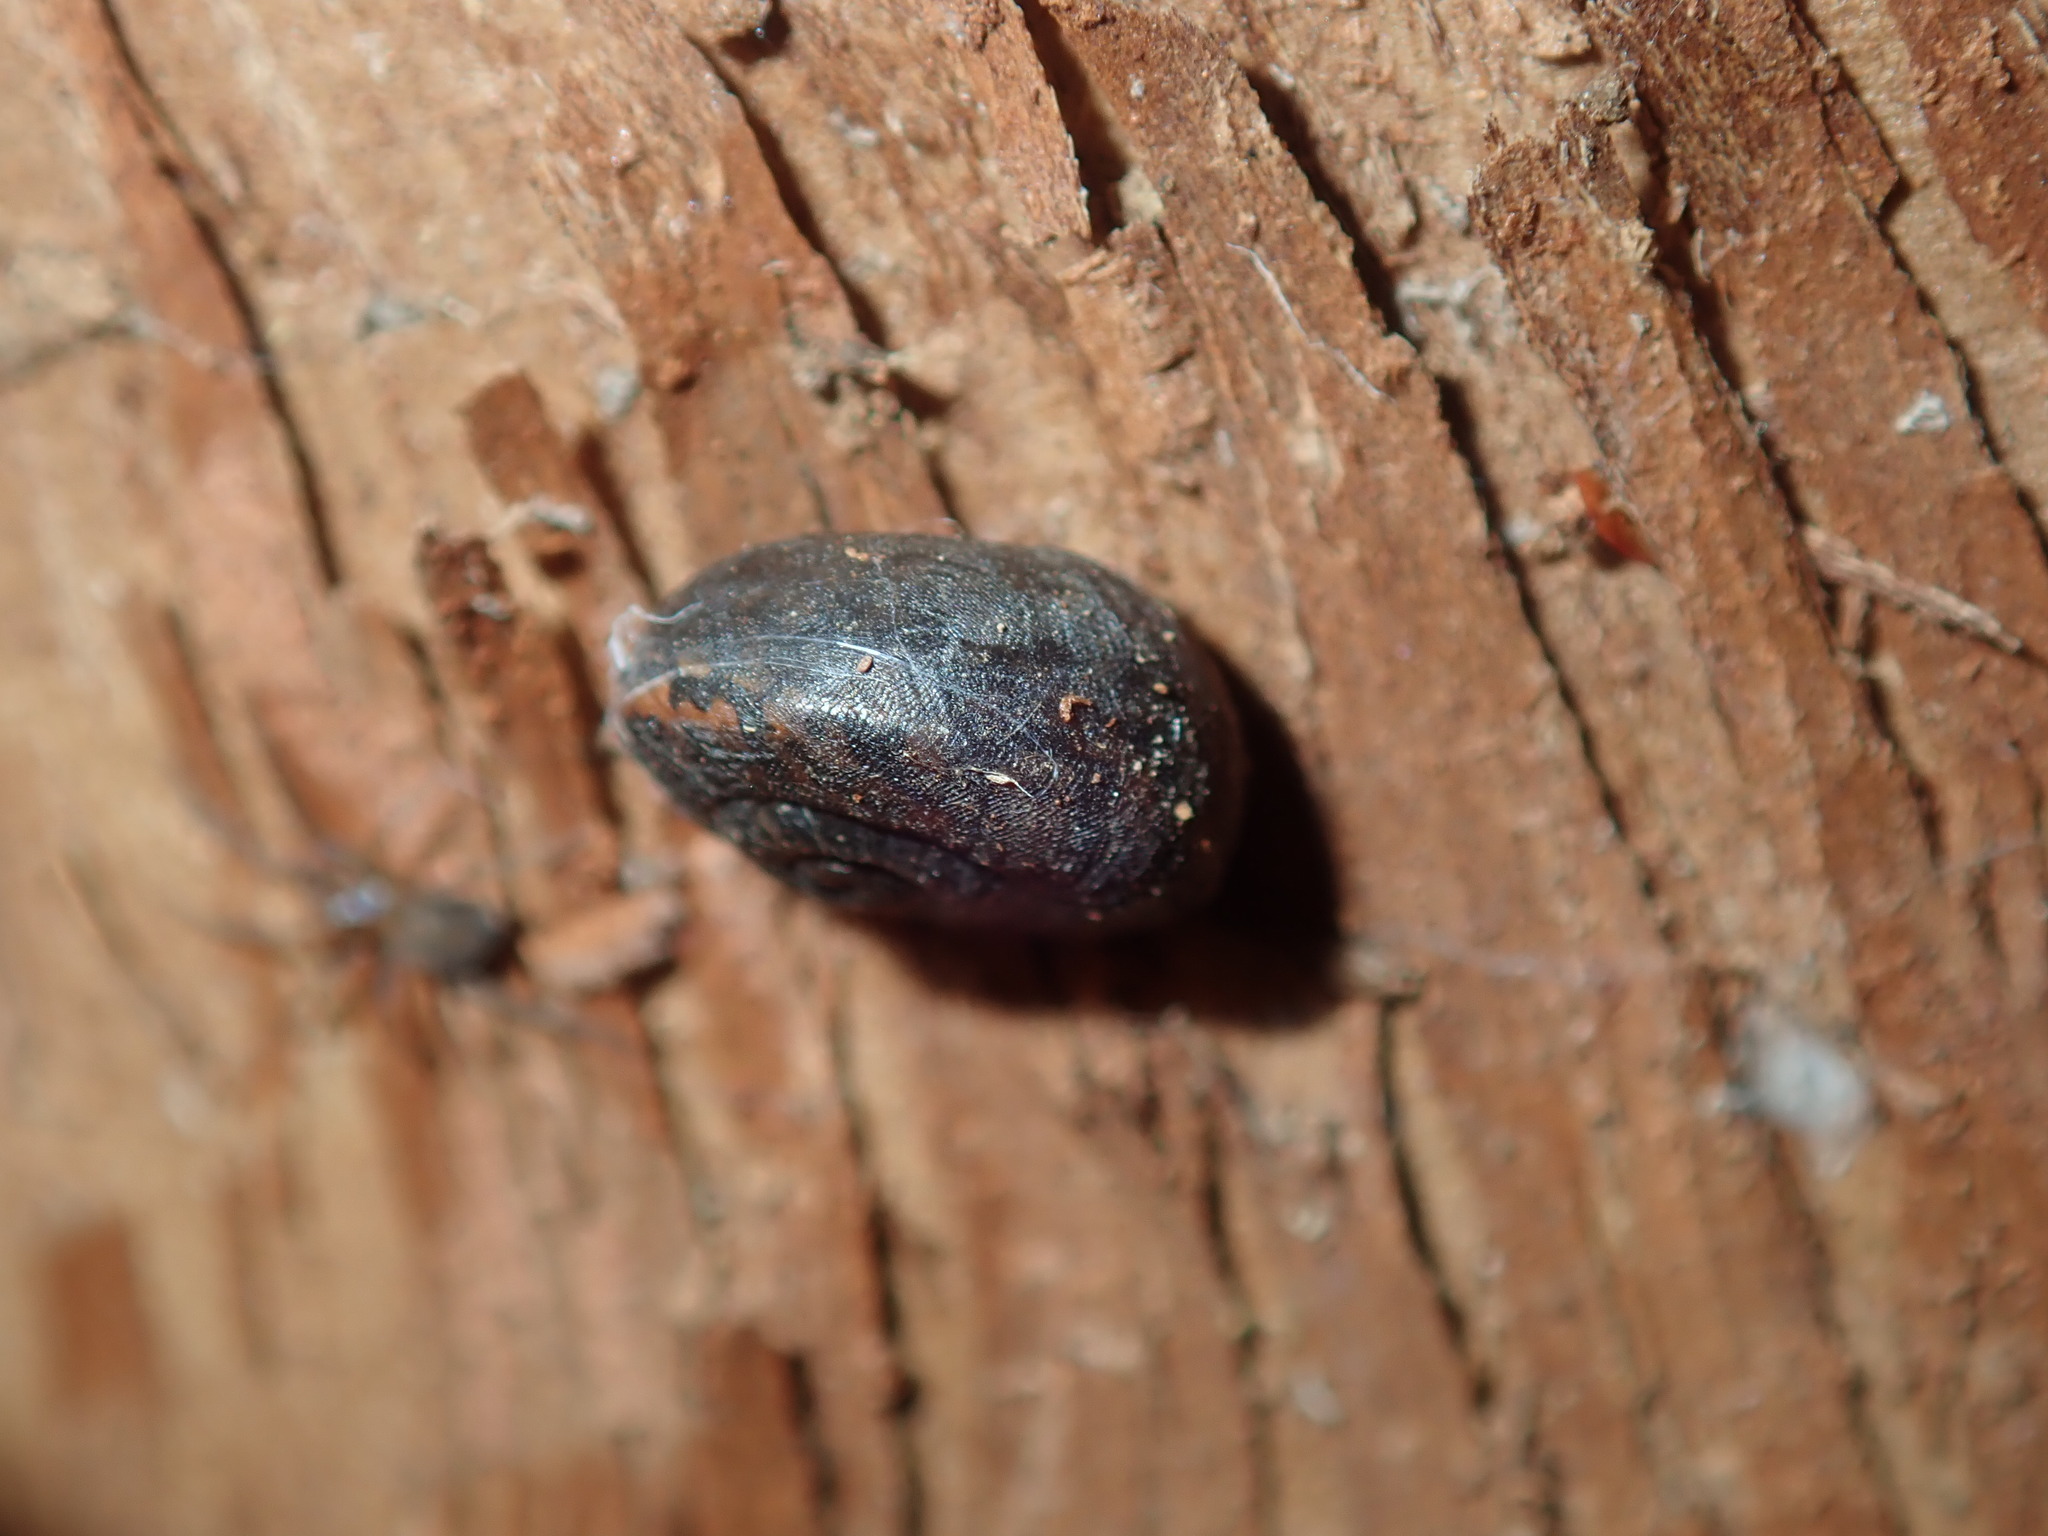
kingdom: Animalia
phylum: Mollusca
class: Gastropoda
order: Stylommatophora
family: Camaenidae
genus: Sauroconcha
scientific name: Sauroconcha sheai
